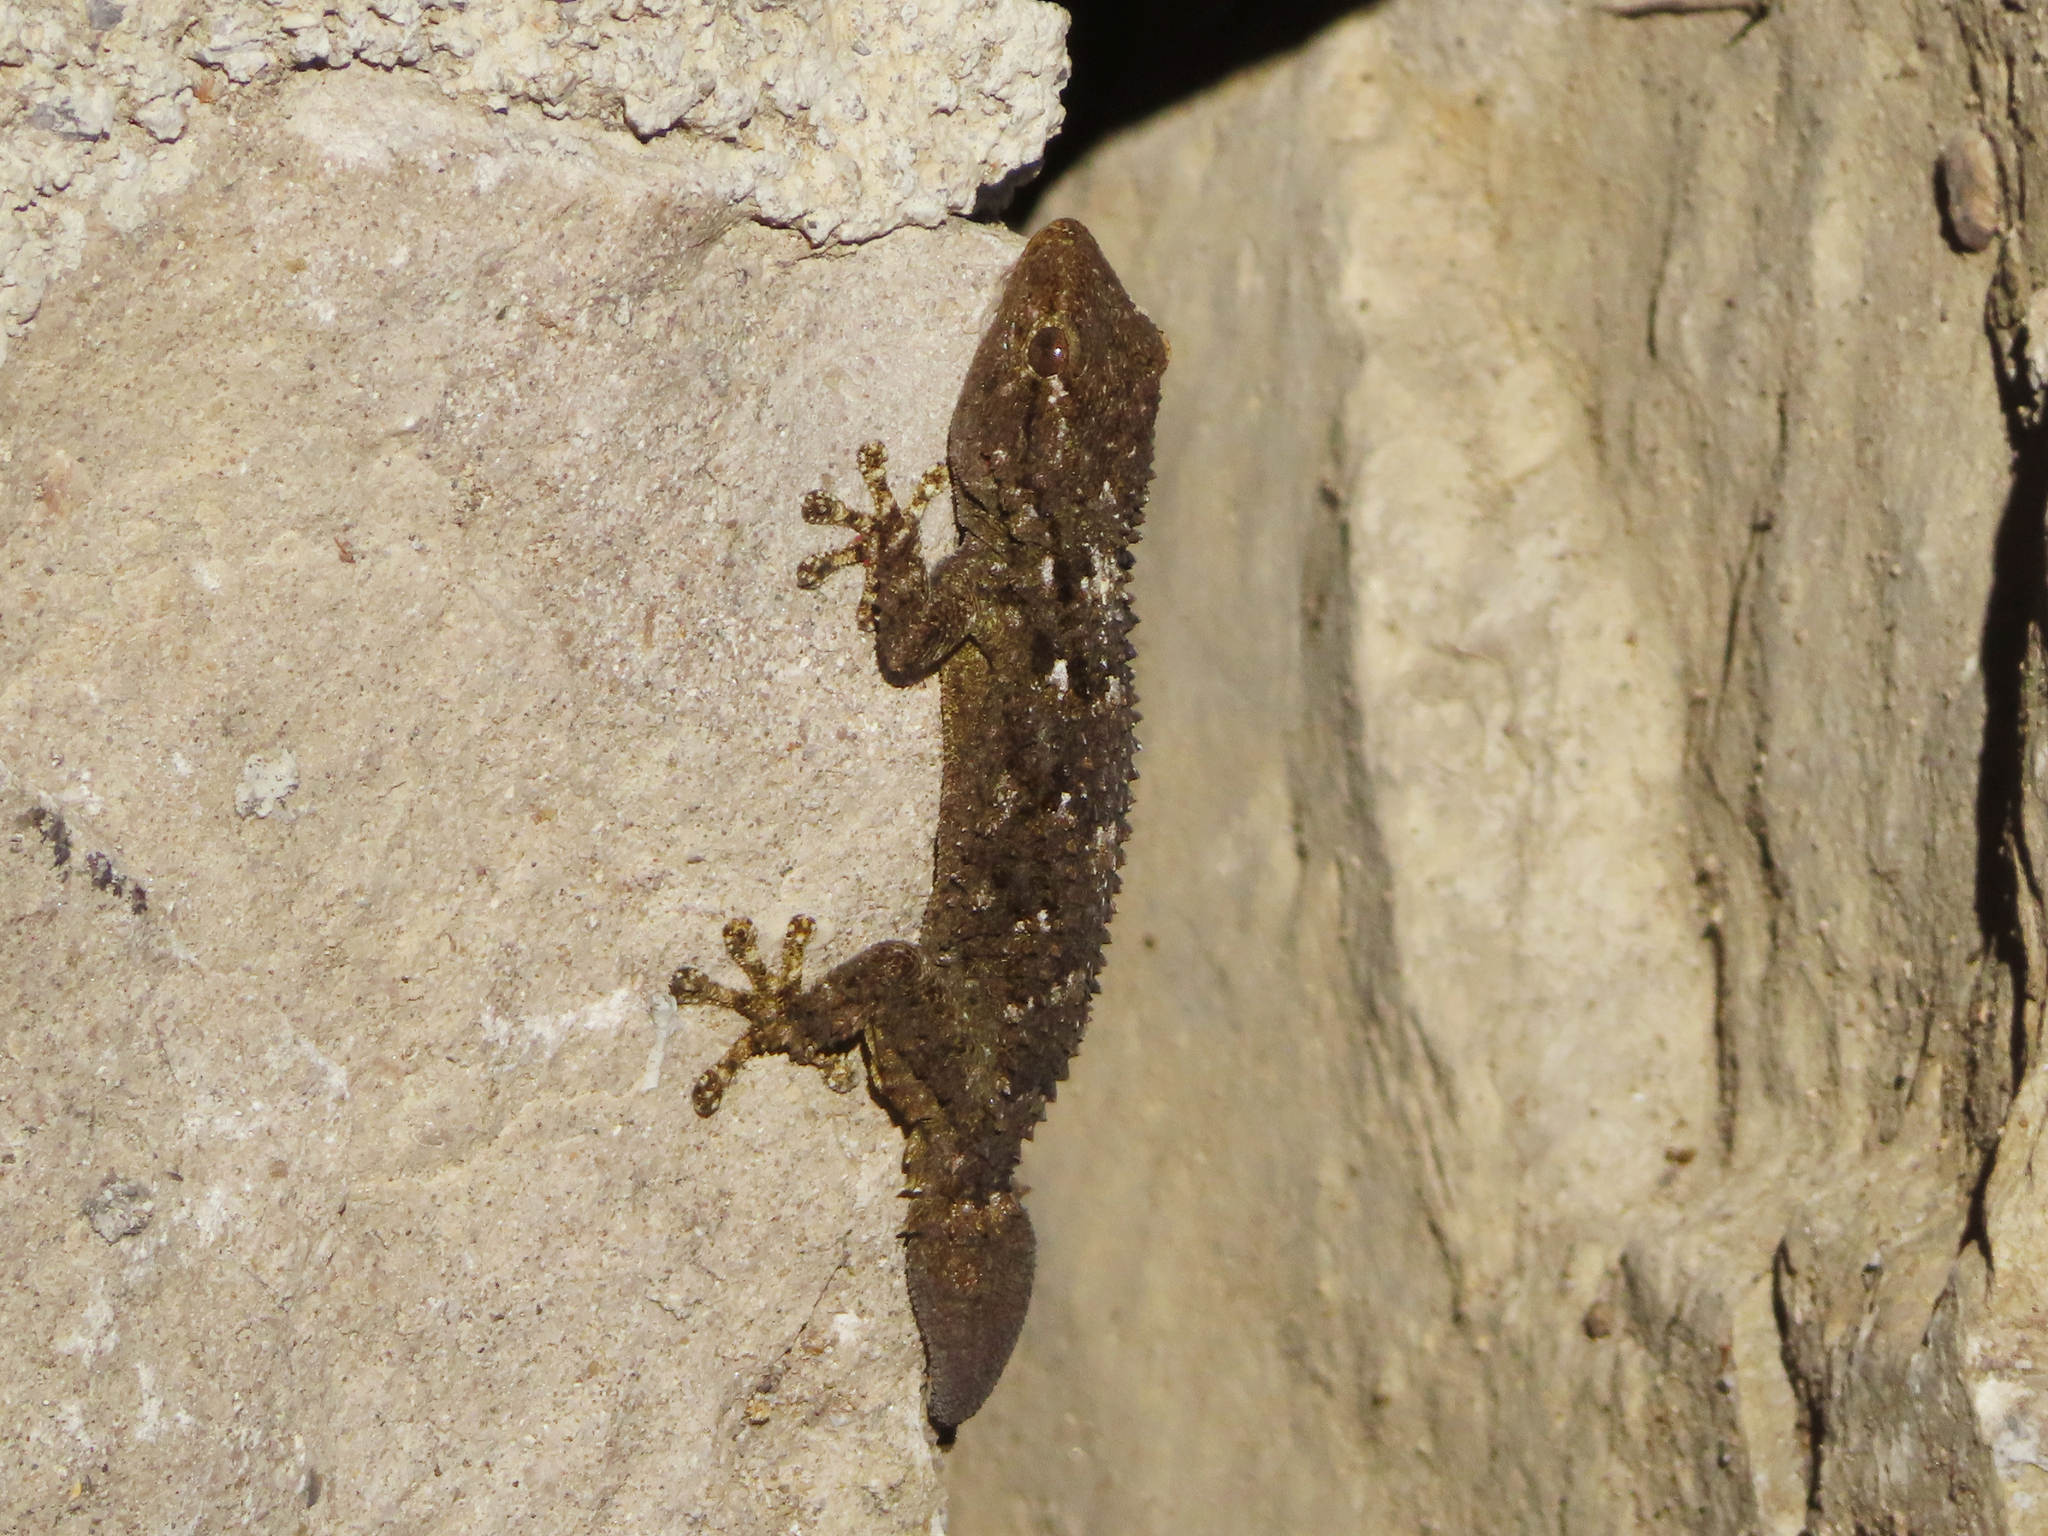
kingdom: Animalia
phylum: Chordata
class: Squamata
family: Phyllodactylidae
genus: Tarentola
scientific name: Tarentola mauritanica
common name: Moorish gecko
